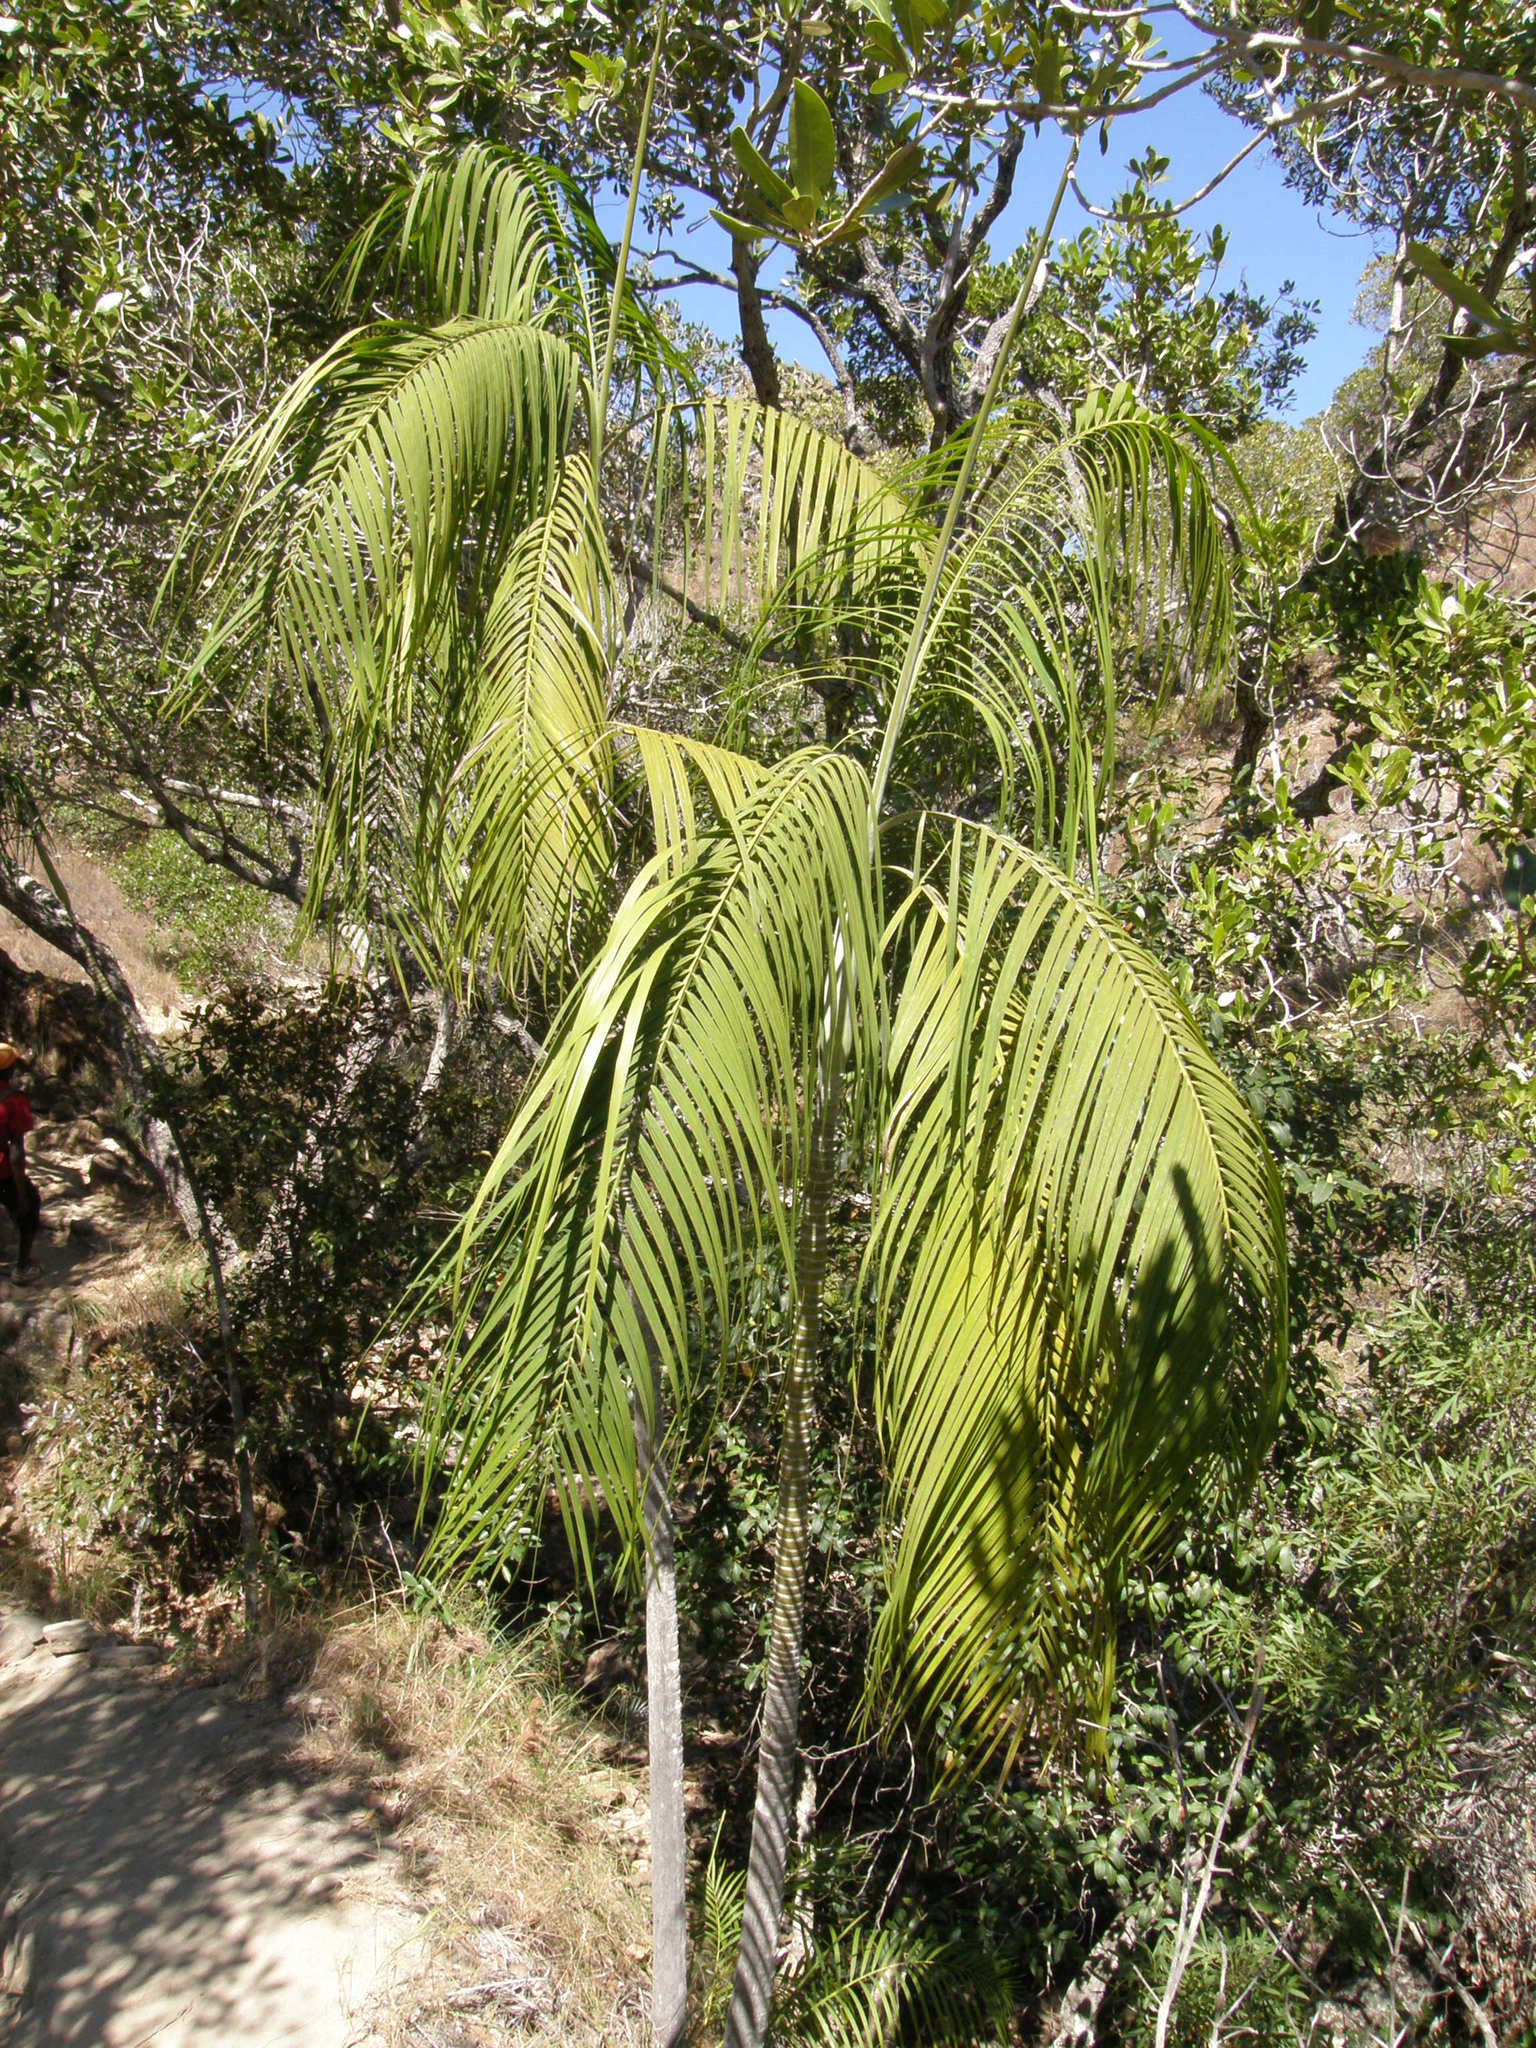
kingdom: Plantae
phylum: Tracheophyta
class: Liliopsida
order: Arecales
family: Arecaceae
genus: Dypsis
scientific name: Dypsis onilahensis
